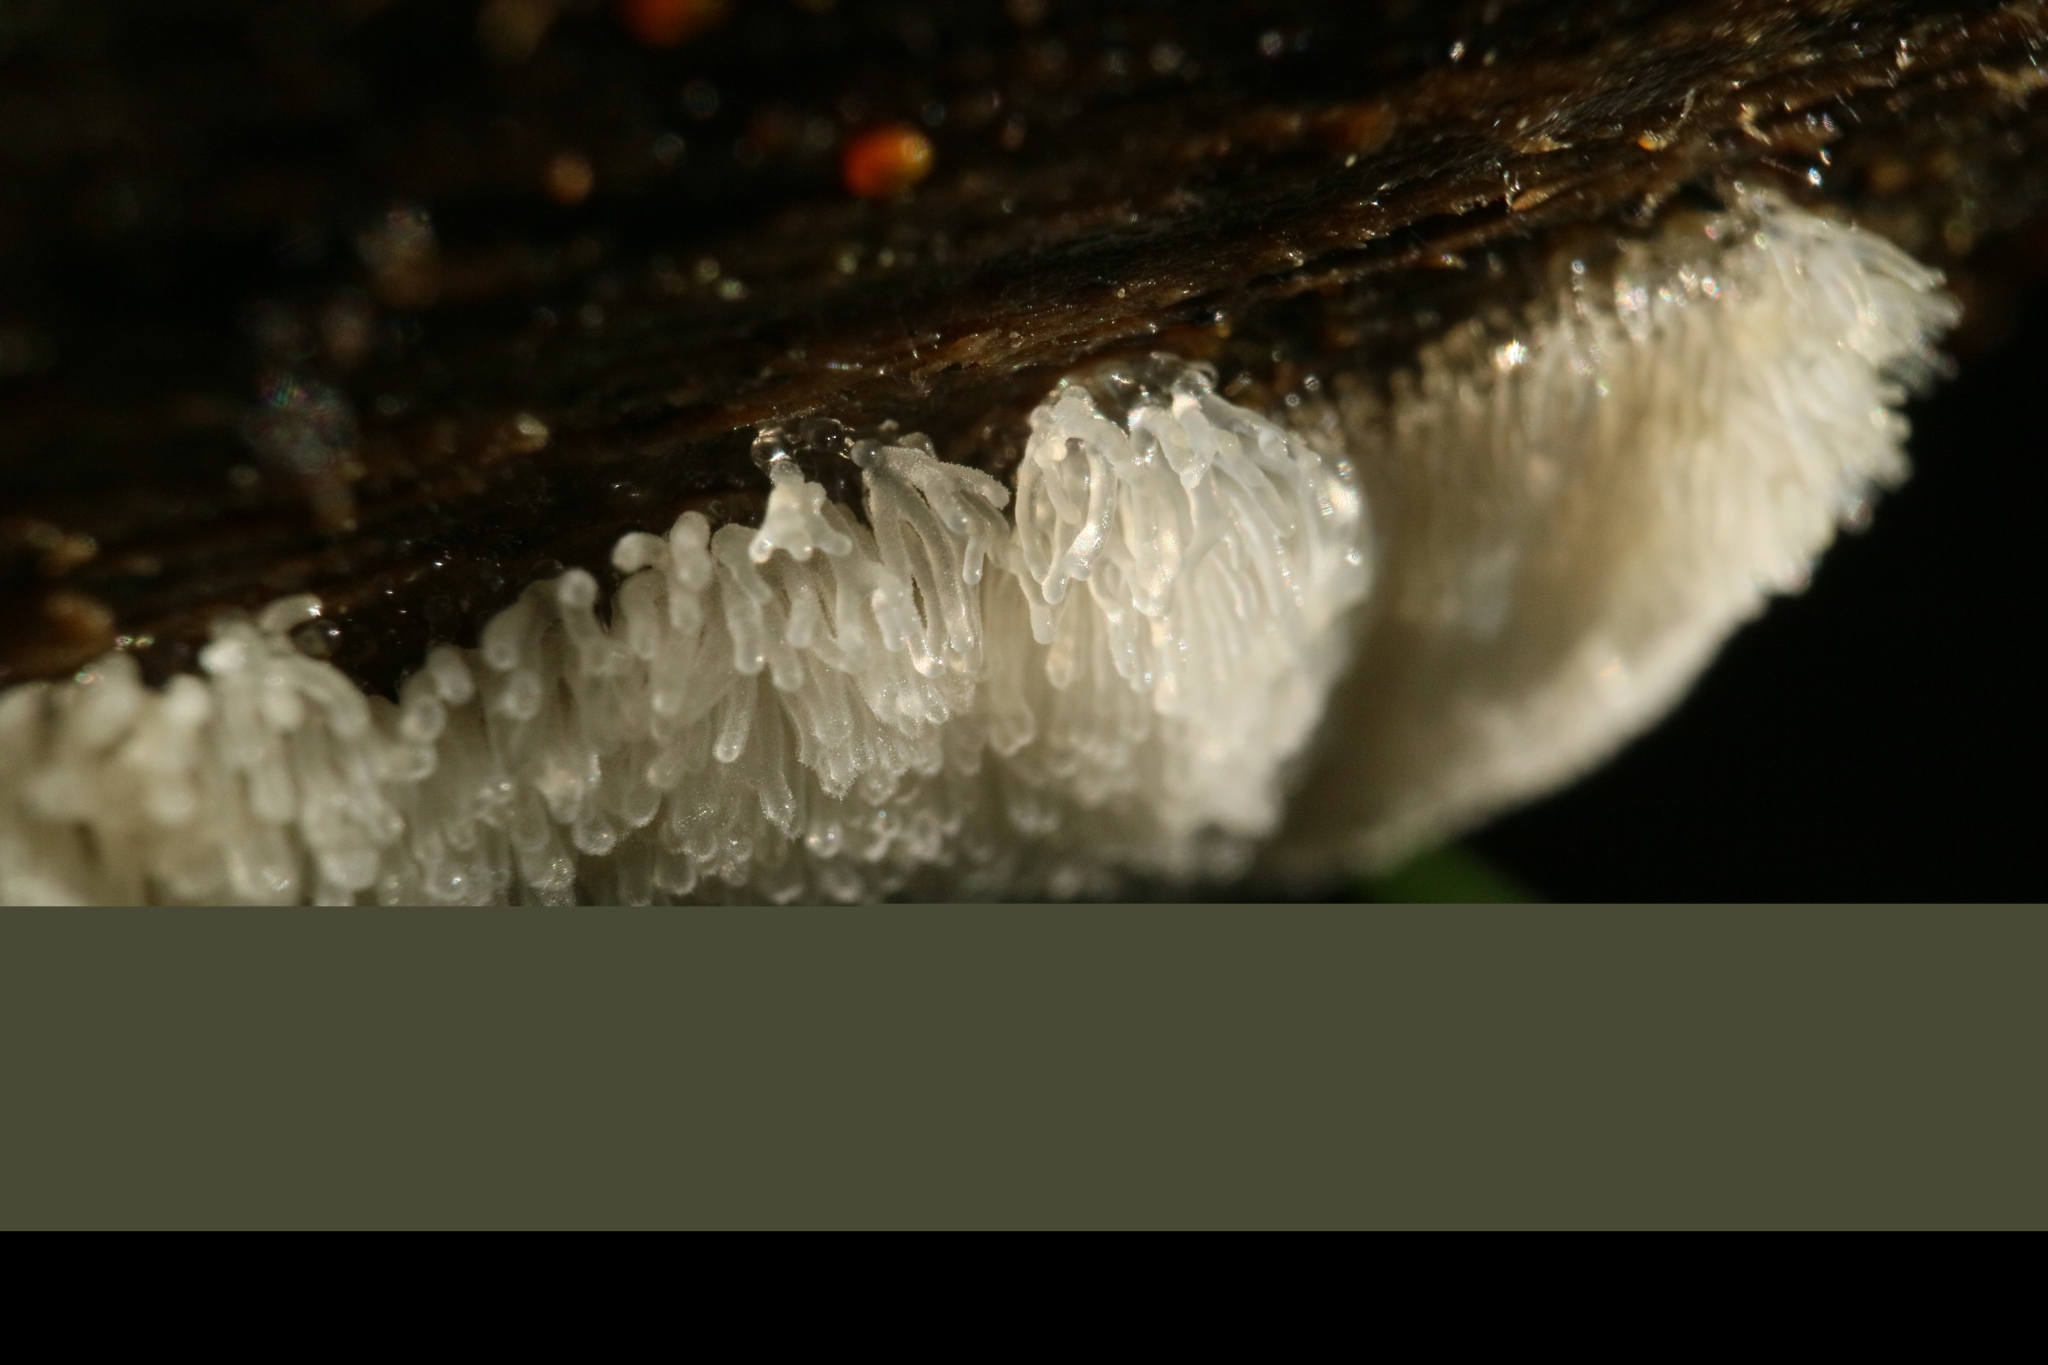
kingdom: Protozoa
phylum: Mycetozoa
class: Protosteliomycetes
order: Ceratiomyxales
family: Ceratiomyxaceae
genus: Ceratiomyxa
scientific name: Ceratiomyxa fruticulosa
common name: Honeycomb coral slime mold
